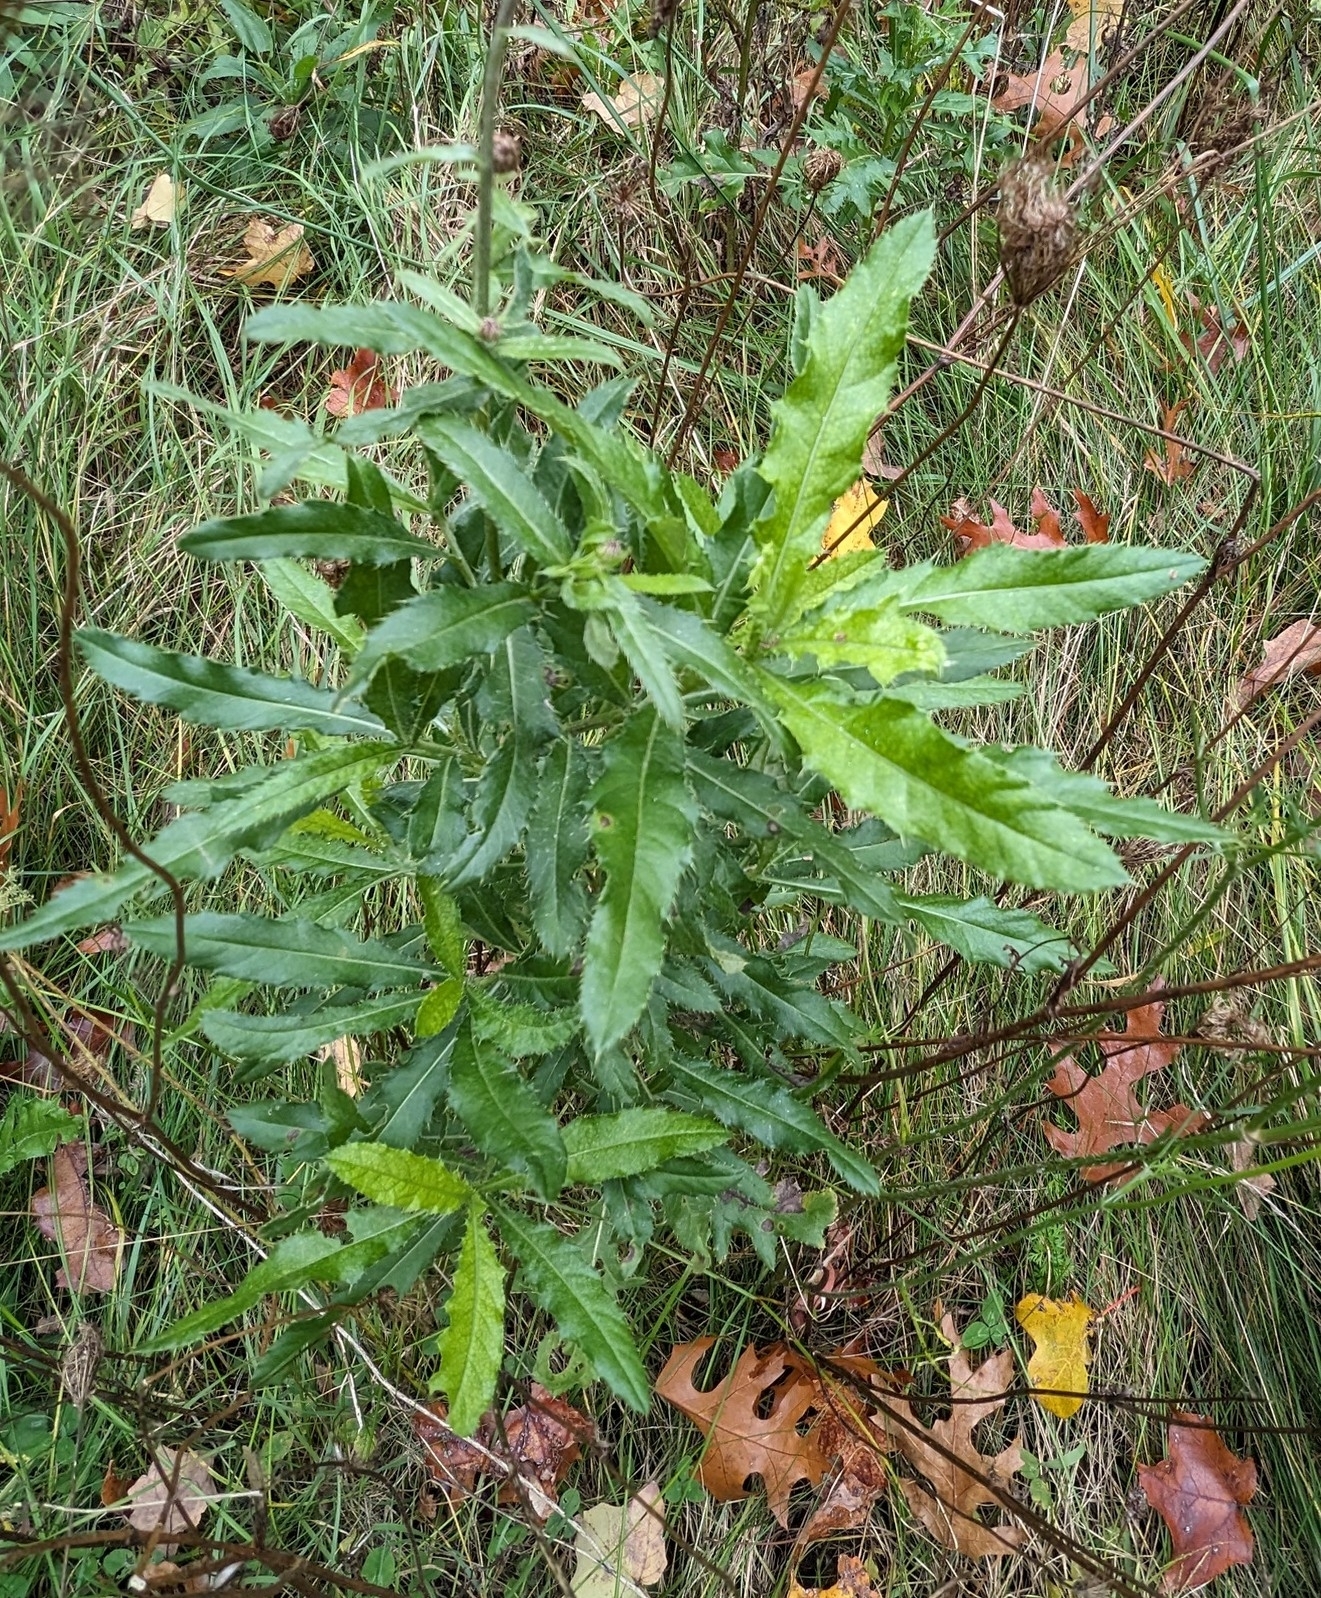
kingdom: Plantae
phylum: Tracheophyta
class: Magnoliopsida
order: Asterales
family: Asteraceae
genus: Cirsium
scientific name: Cirsium arvense
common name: Creeping thistle
